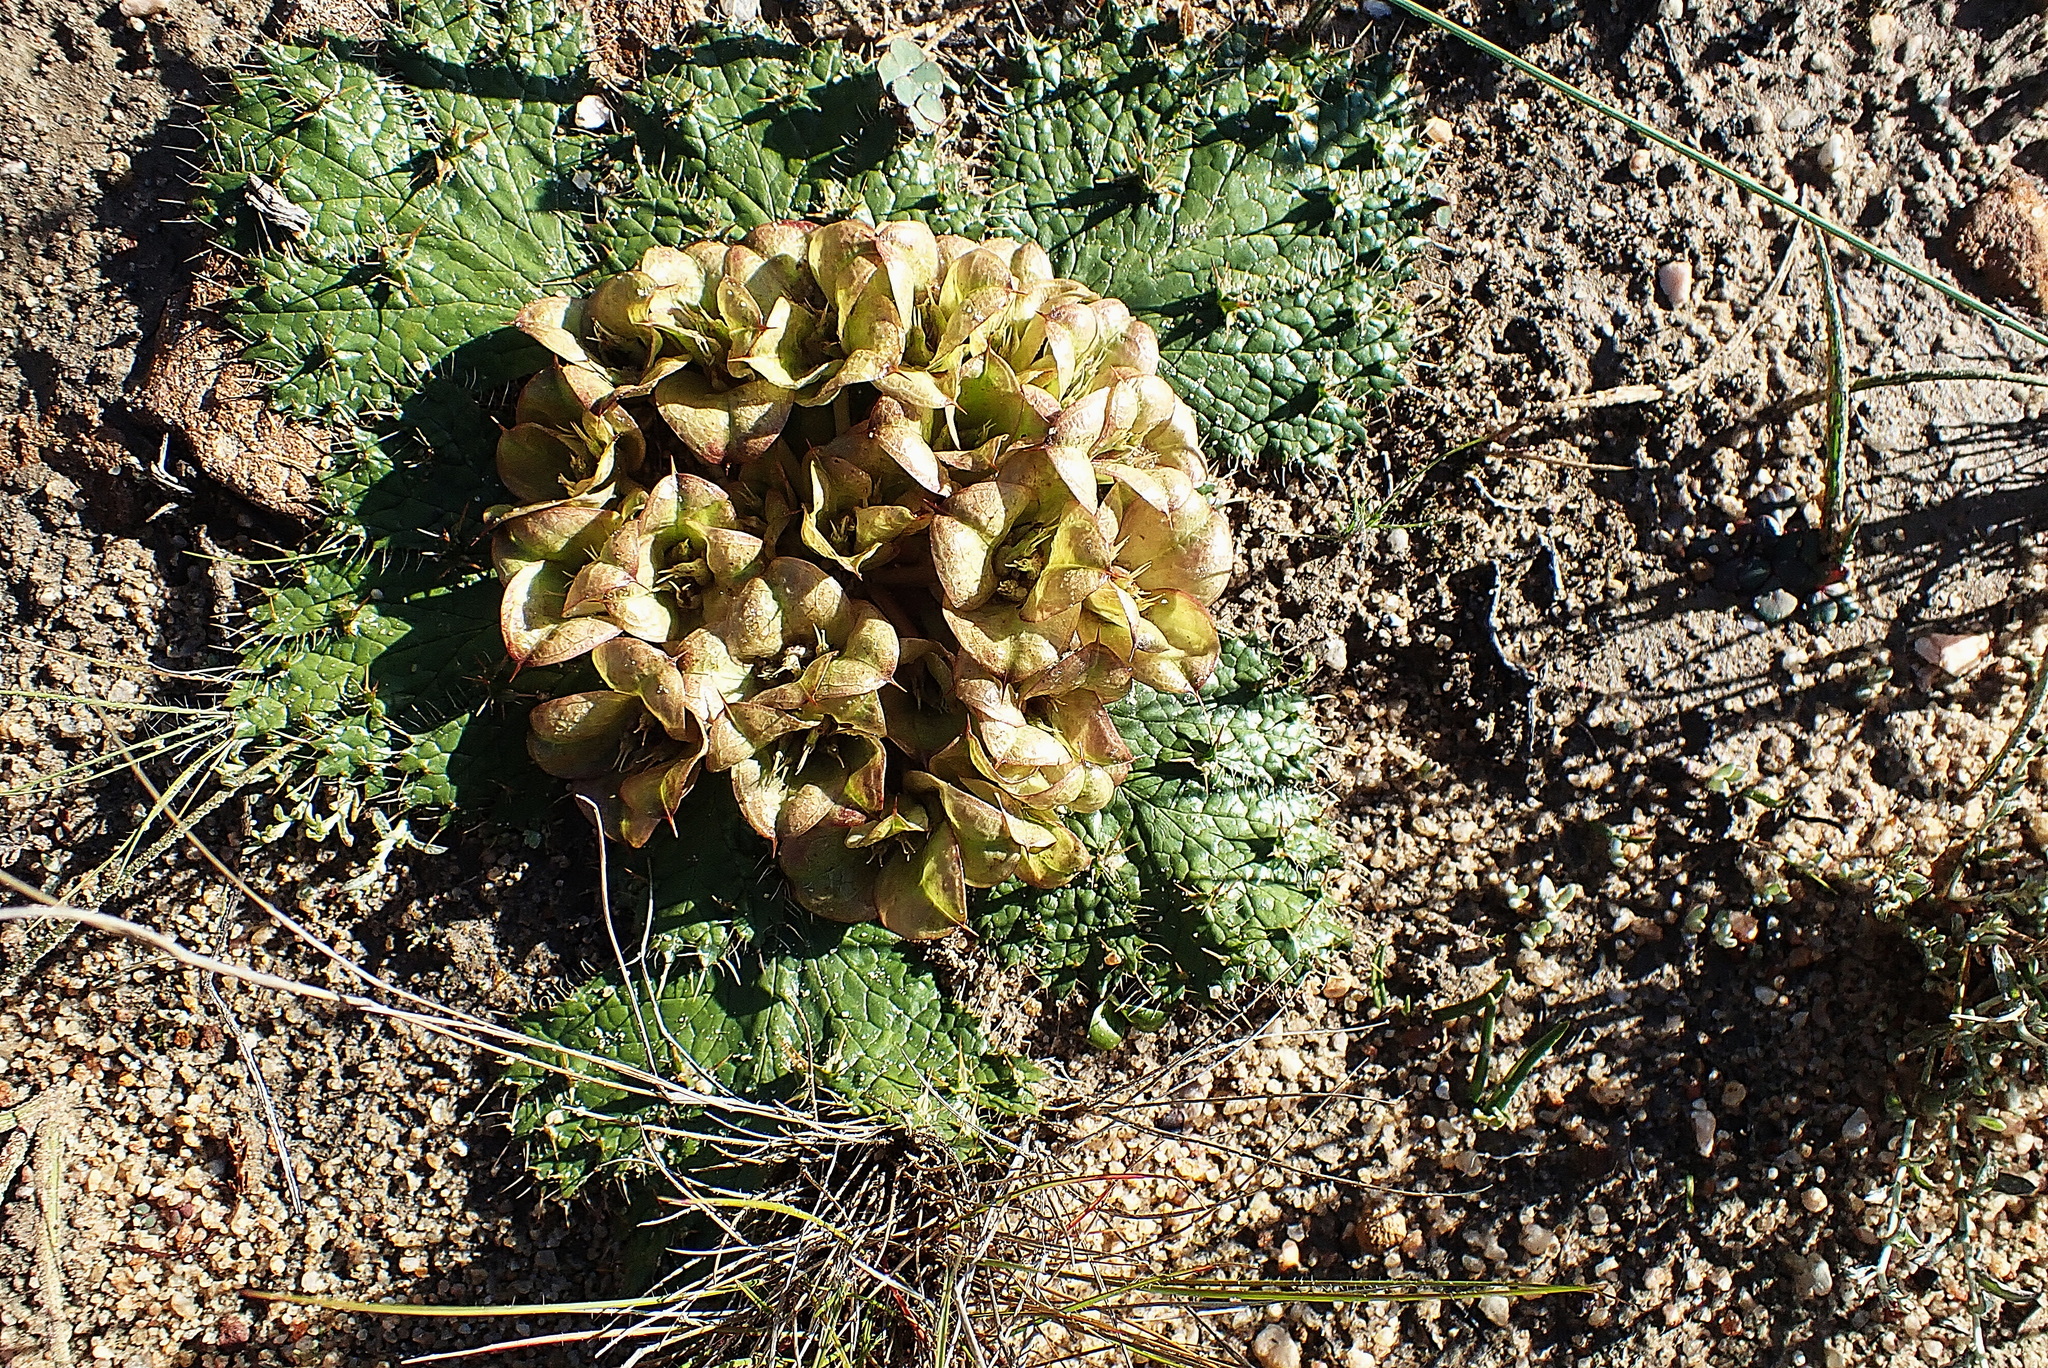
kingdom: Plantae
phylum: Tracheophyta
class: Magnoliopsida
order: Apiales
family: Apiaceae
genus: Arctopus
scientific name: Arctopus monacanthus
